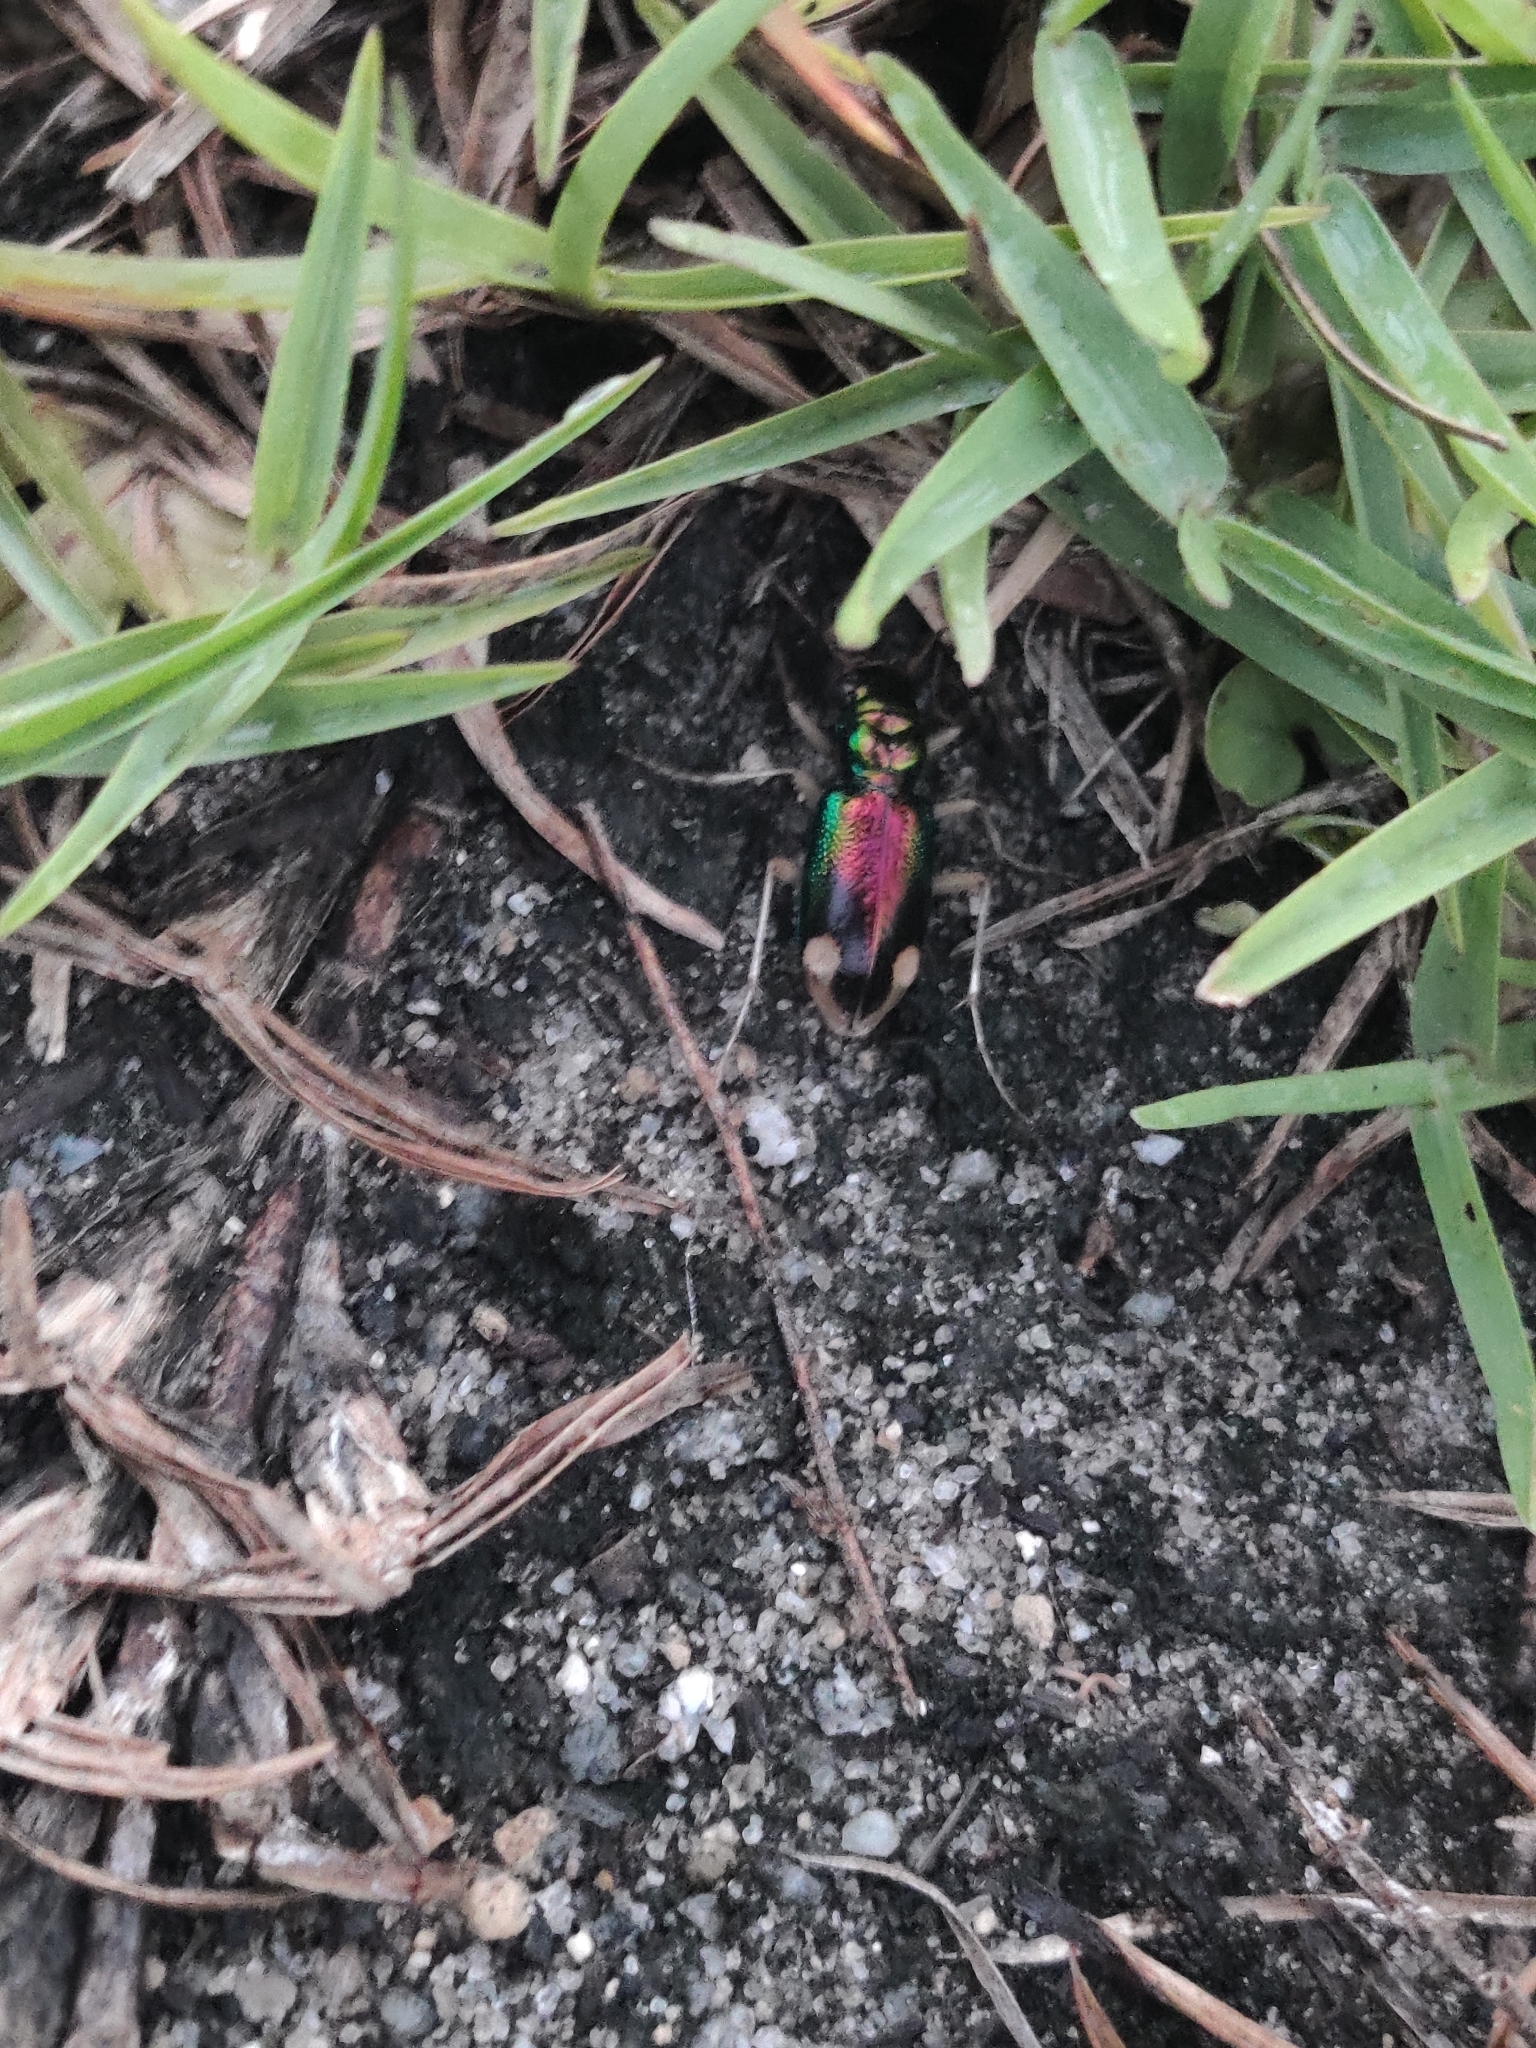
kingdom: Animalia
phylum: Arthropoda
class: Insecta
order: Coleoptera
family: Carabidae
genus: Tetracha
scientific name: Tetracha carolina
